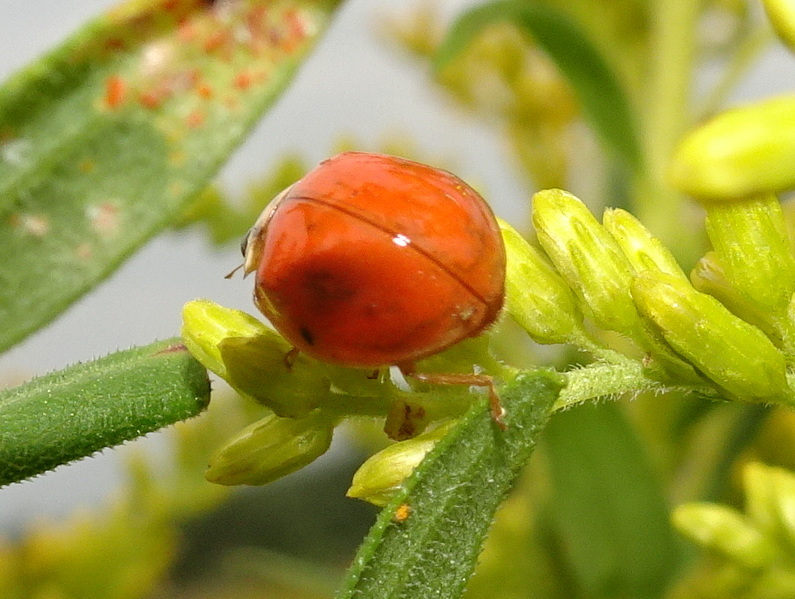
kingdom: Animalia
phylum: Arthropoda
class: Insecta
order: Coleoptera
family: Coccinellidae
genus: Harmonia
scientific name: Harmonia axyridis
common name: Harlequin ladybird
